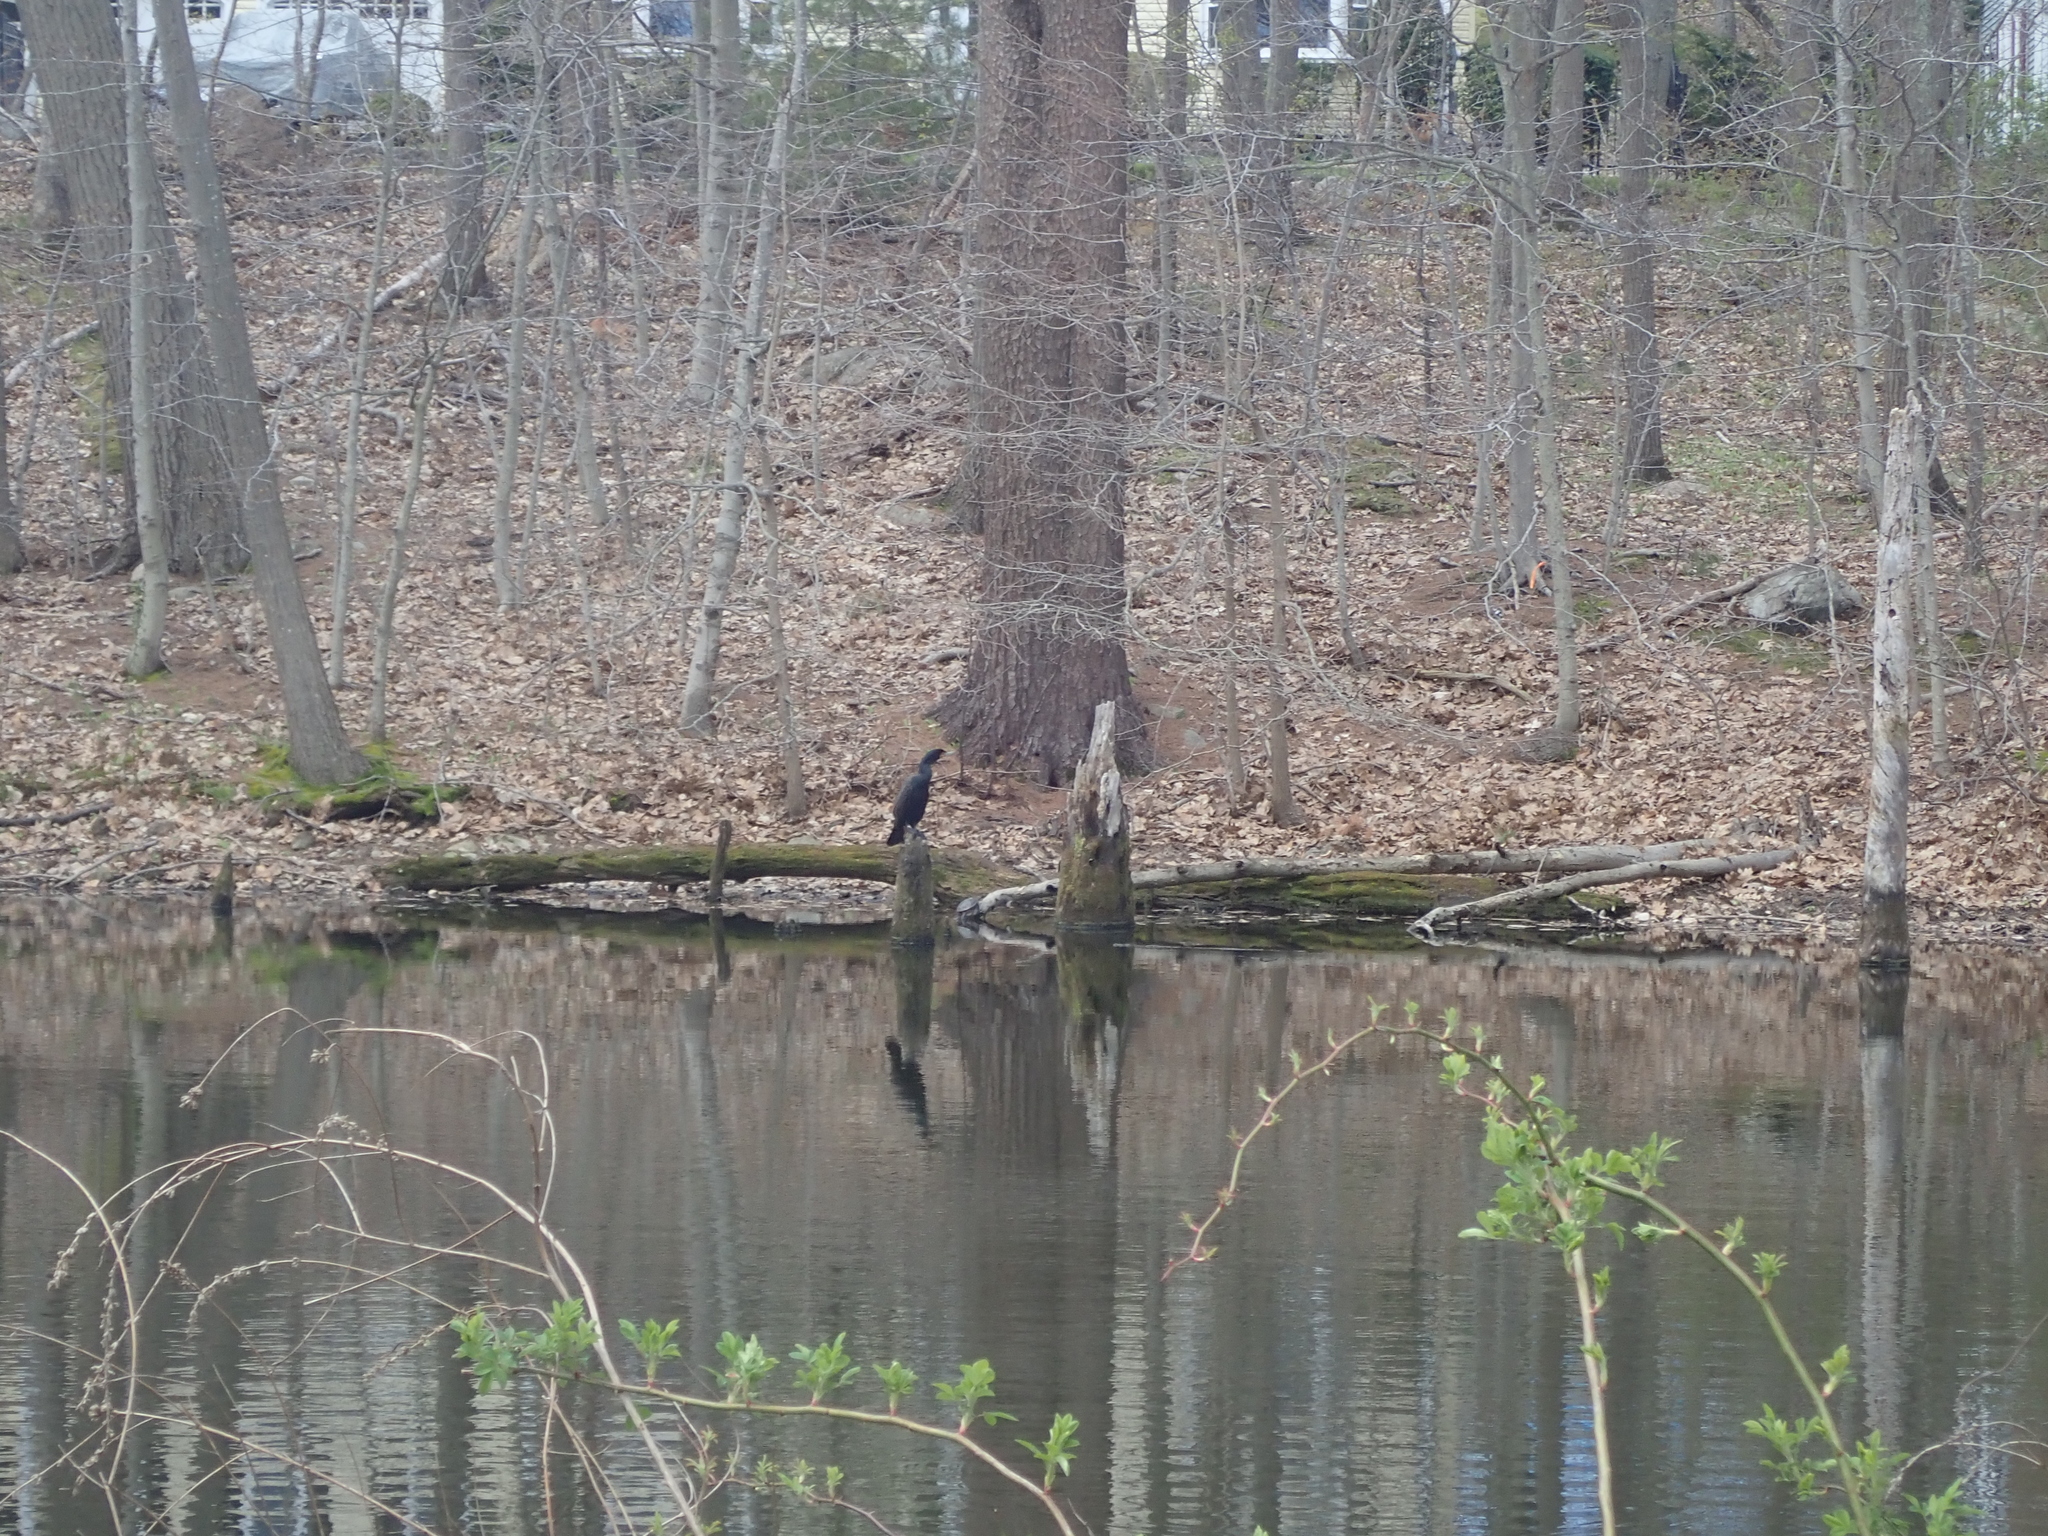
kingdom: Animalia
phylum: Chordata
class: Aves
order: Suliformes
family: Phalacrocoracidae
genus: Phalacrocorax
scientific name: Phalacrocorax auritus
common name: Double-crested cormorant
